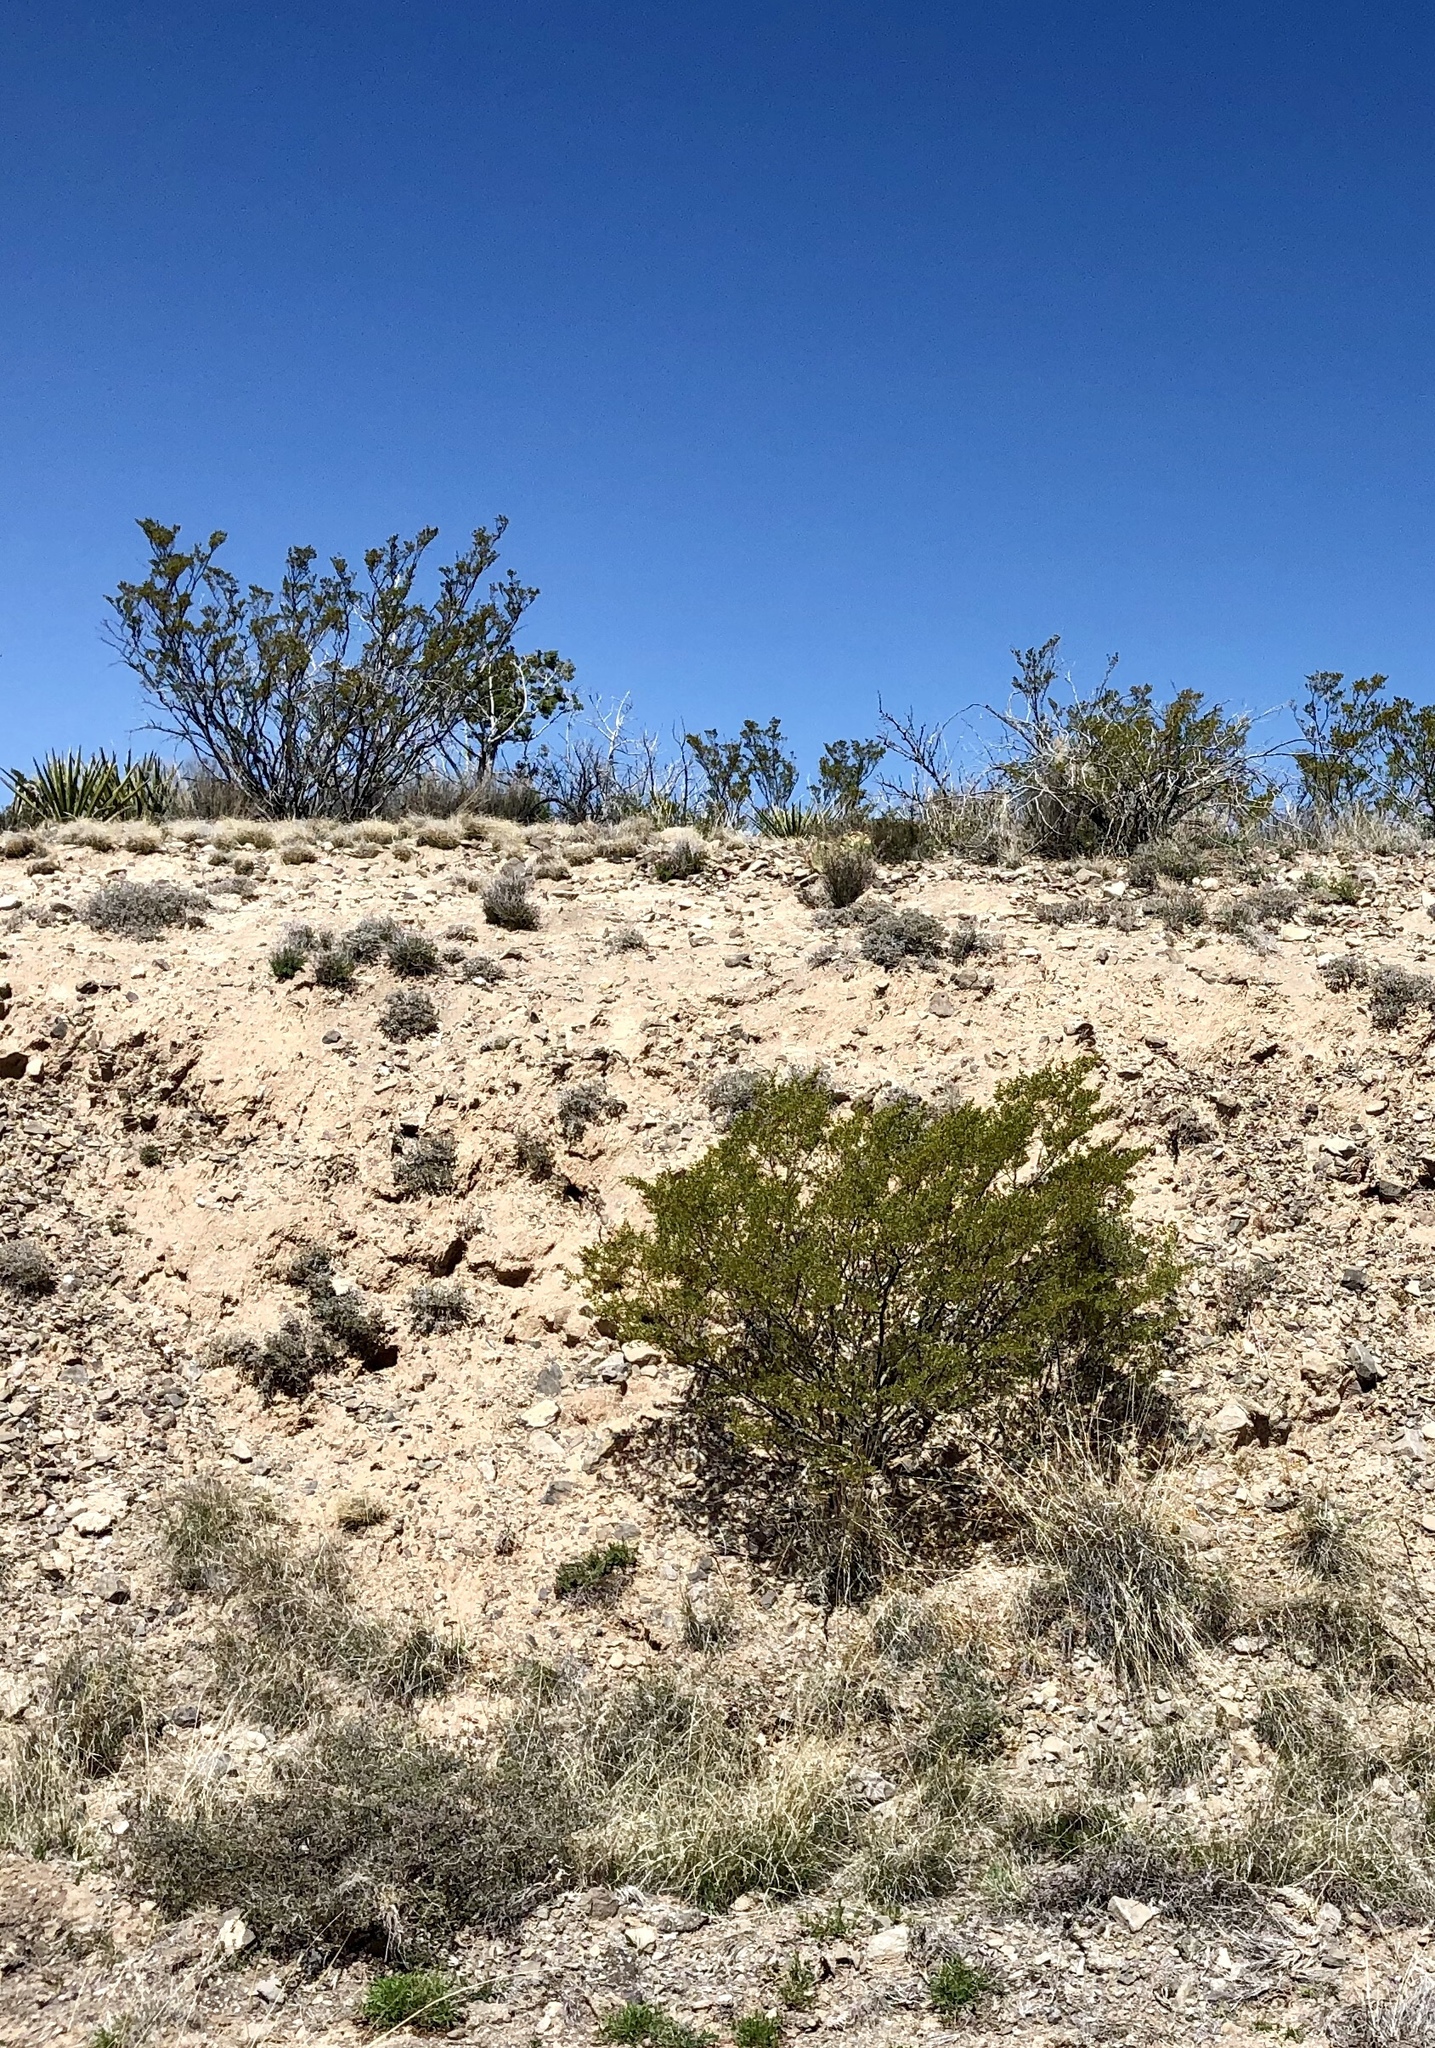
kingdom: Plantae
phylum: Tracheophyta
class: Magnoliopsida
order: Zygophyllales
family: Zygophyllaceae
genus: Larrea
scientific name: Larrea tridentata
